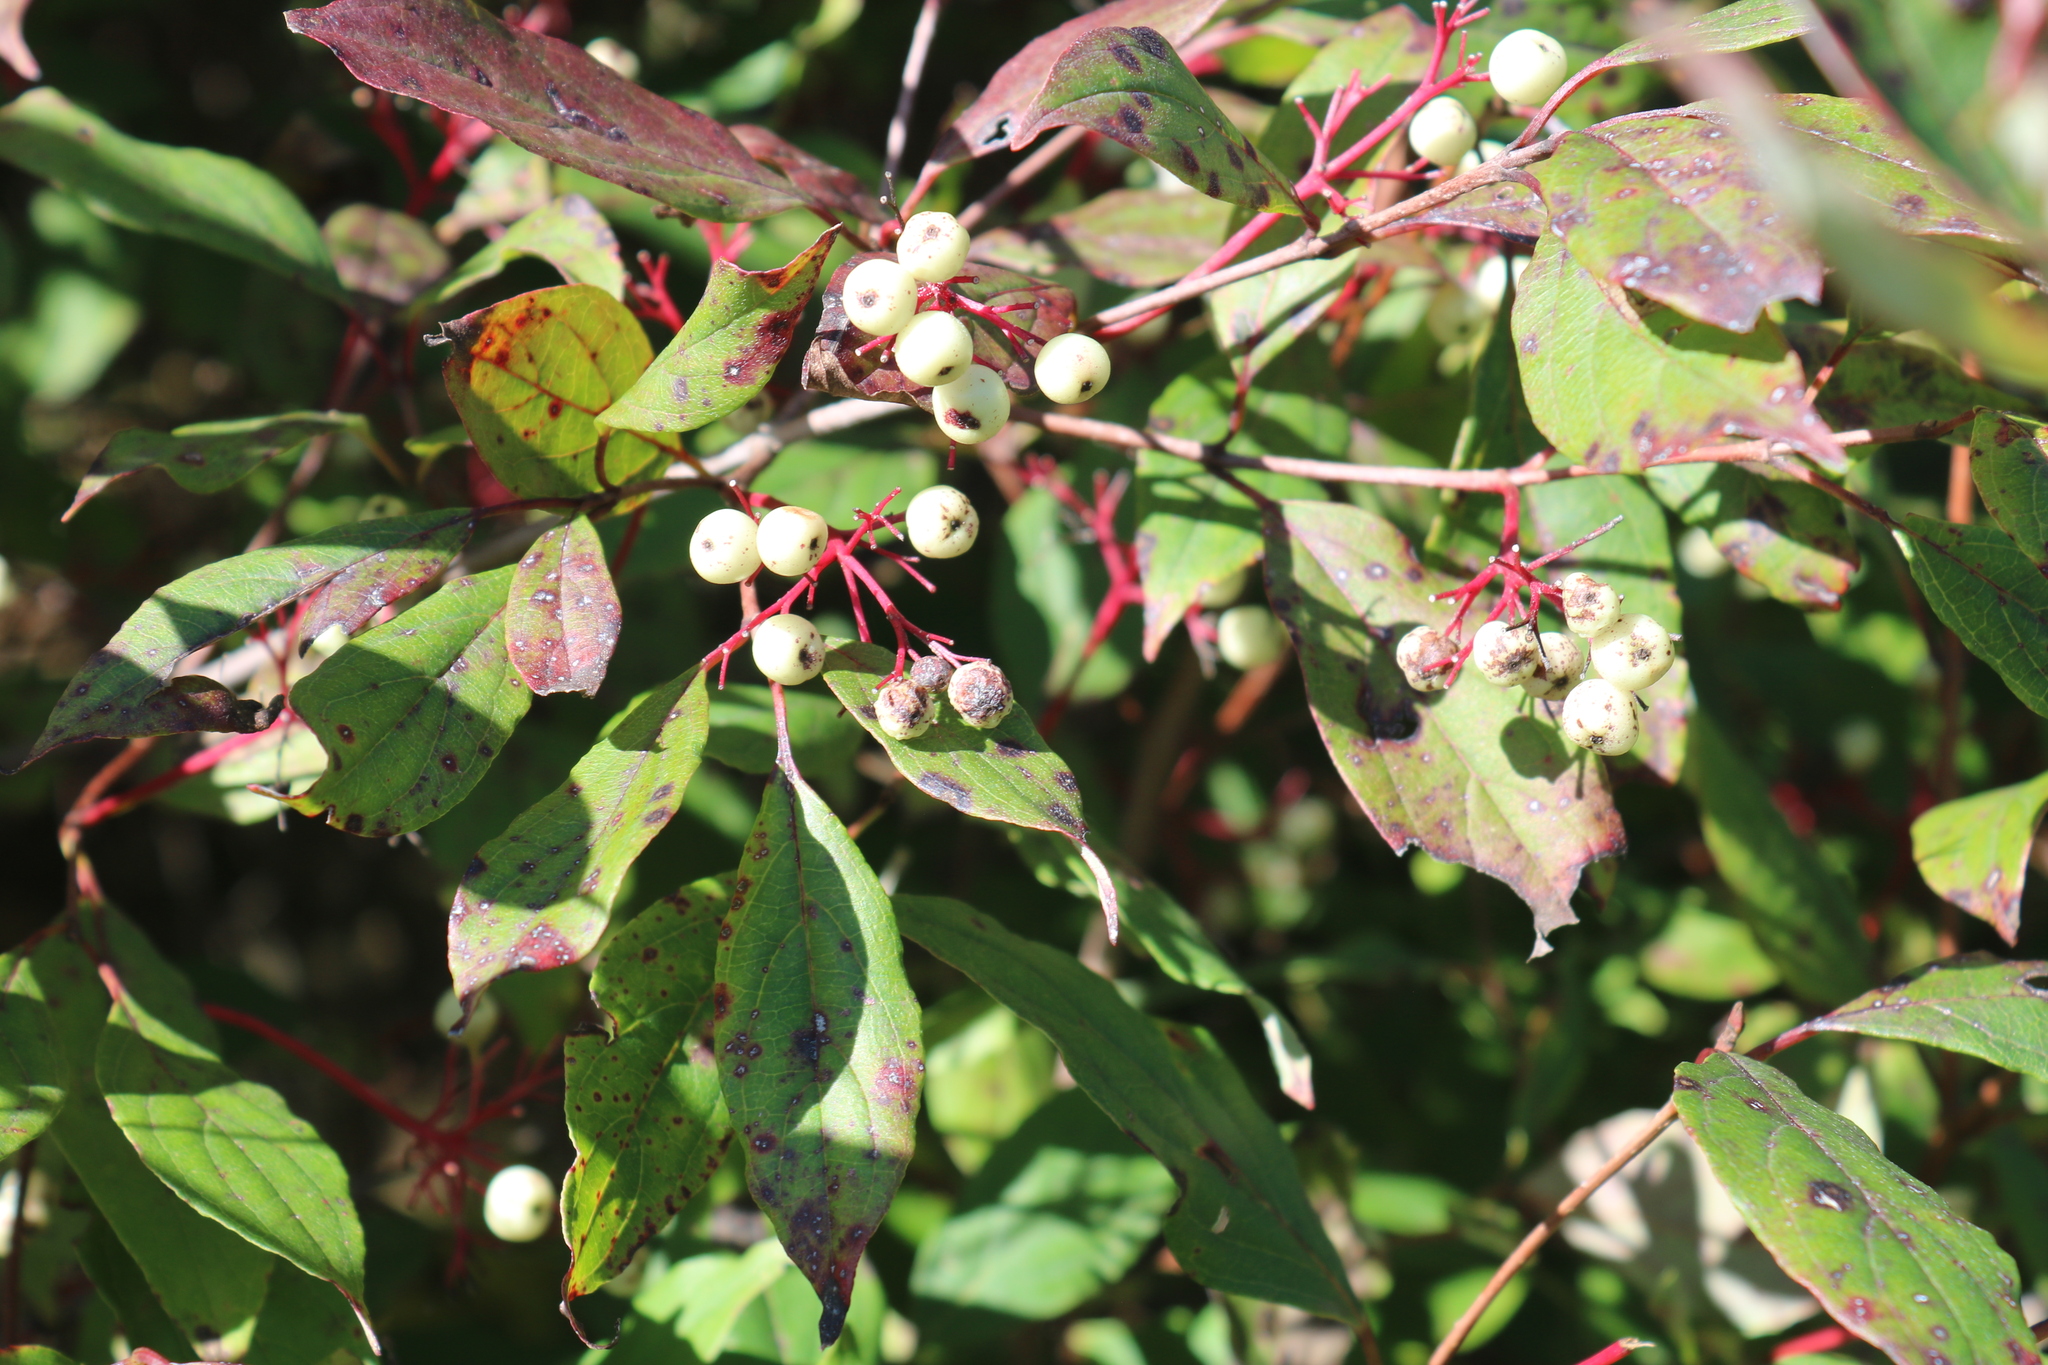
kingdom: Plantae
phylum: Tracheophyta
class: Magnoliopsida
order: Cornales
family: Cornaceae
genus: Cornus
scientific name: Cornus racemosa
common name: Panicled dogwood
